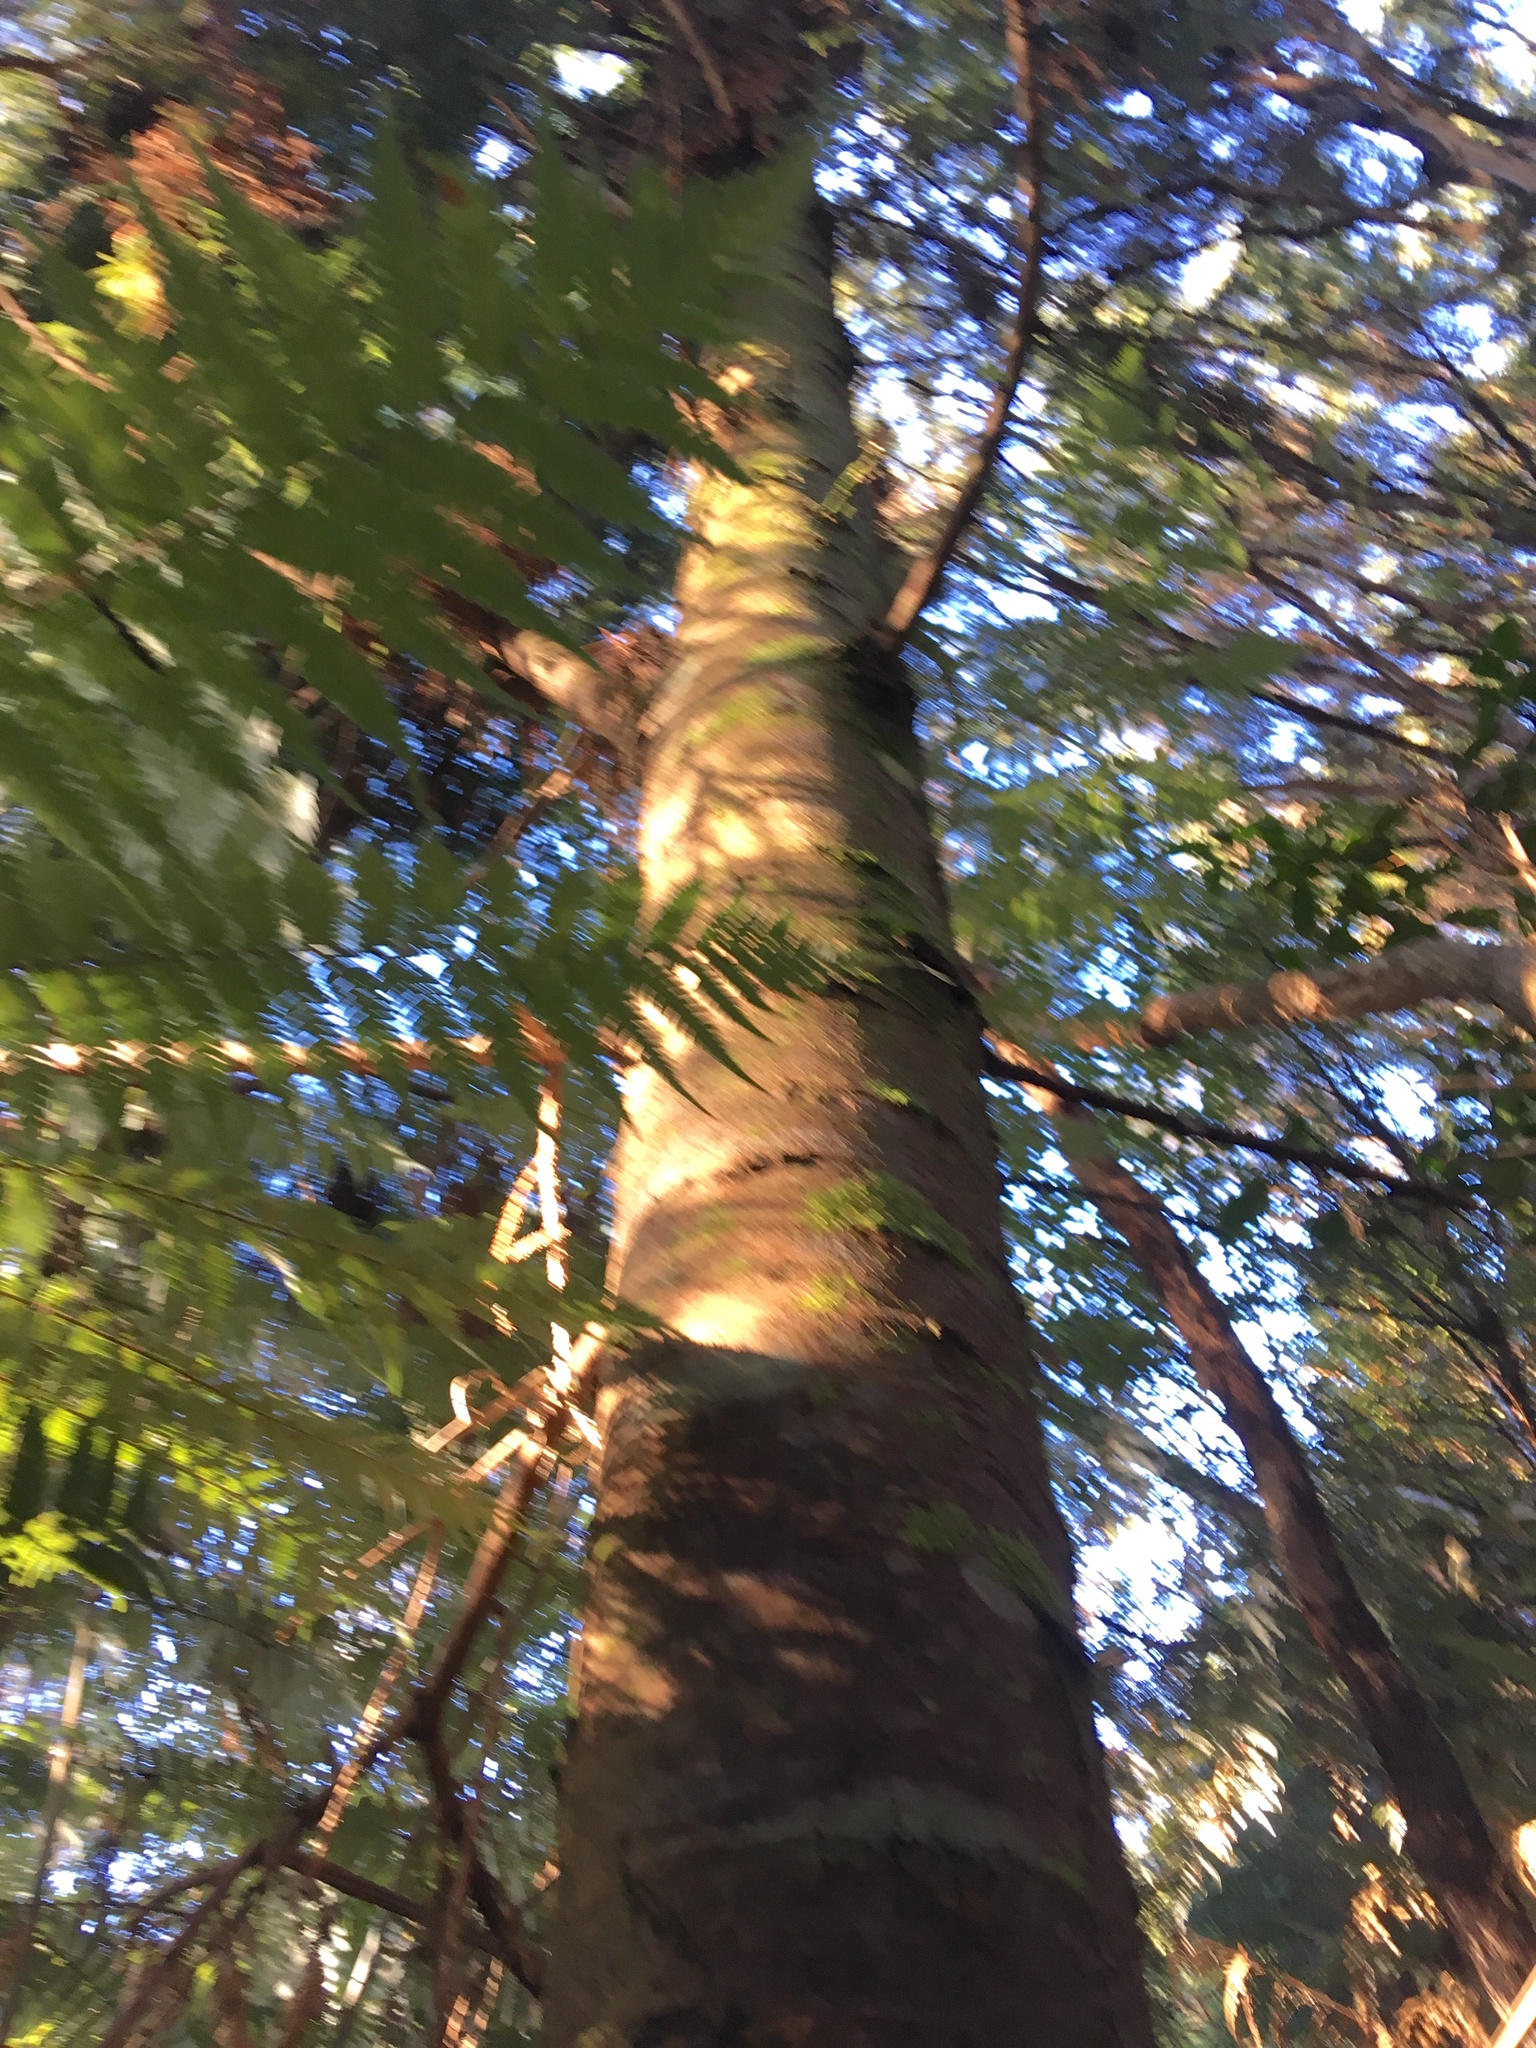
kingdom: Plantae
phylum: Tracheophyta
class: Pinopsida
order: Pinales
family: Podocarpaceae
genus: Dacrydium
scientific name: Dacrydium cupressinum
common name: Red pine
